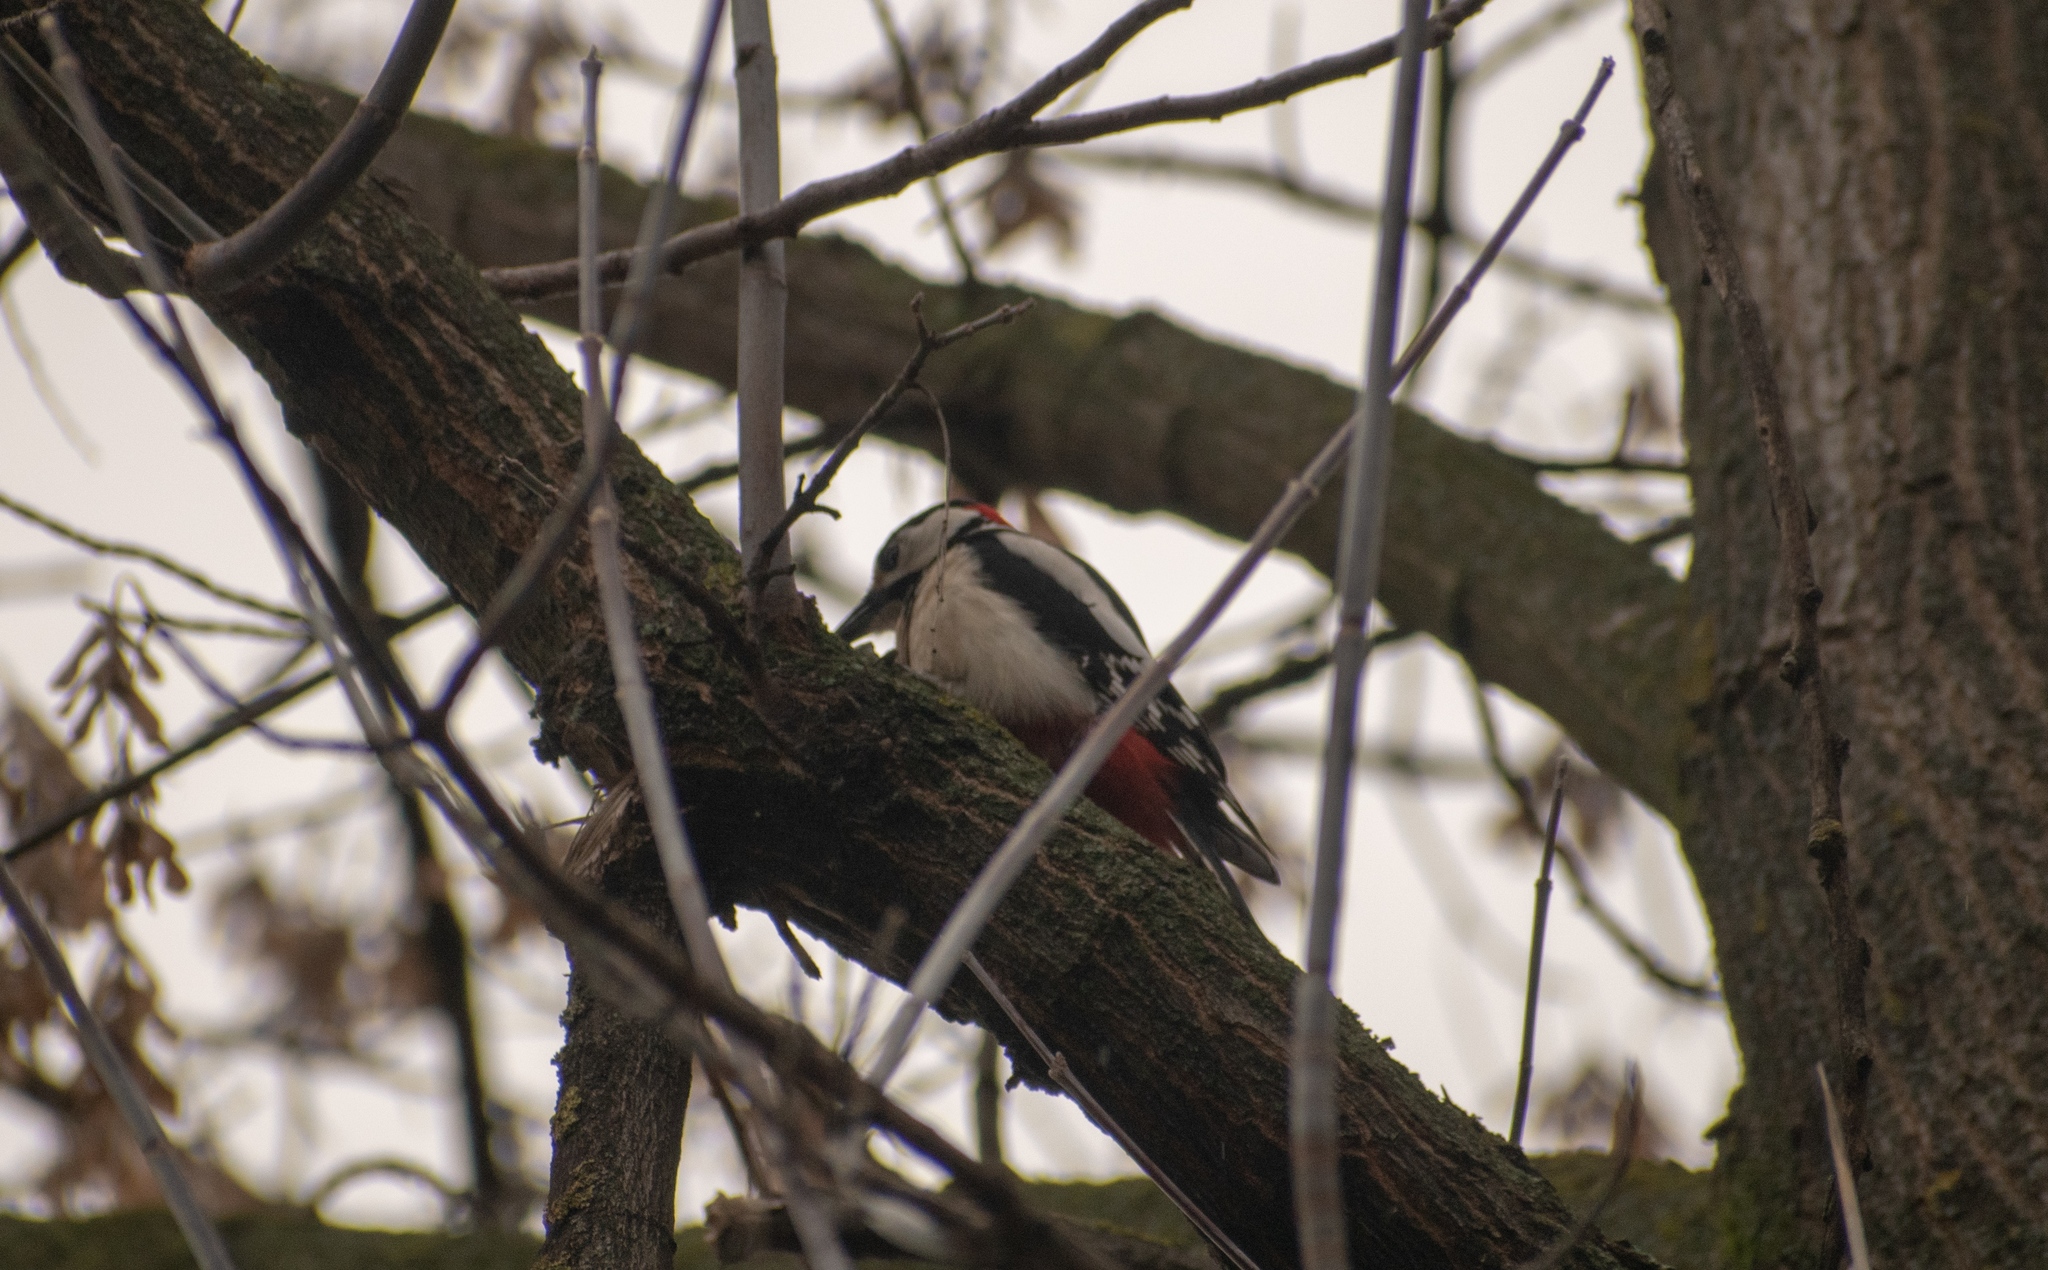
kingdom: Animalia
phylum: Chordata
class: Aves
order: Piciformes
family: Picidae
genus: Dendrocopos
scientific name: Dendrocopos major
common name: Great spotted woodpecker
